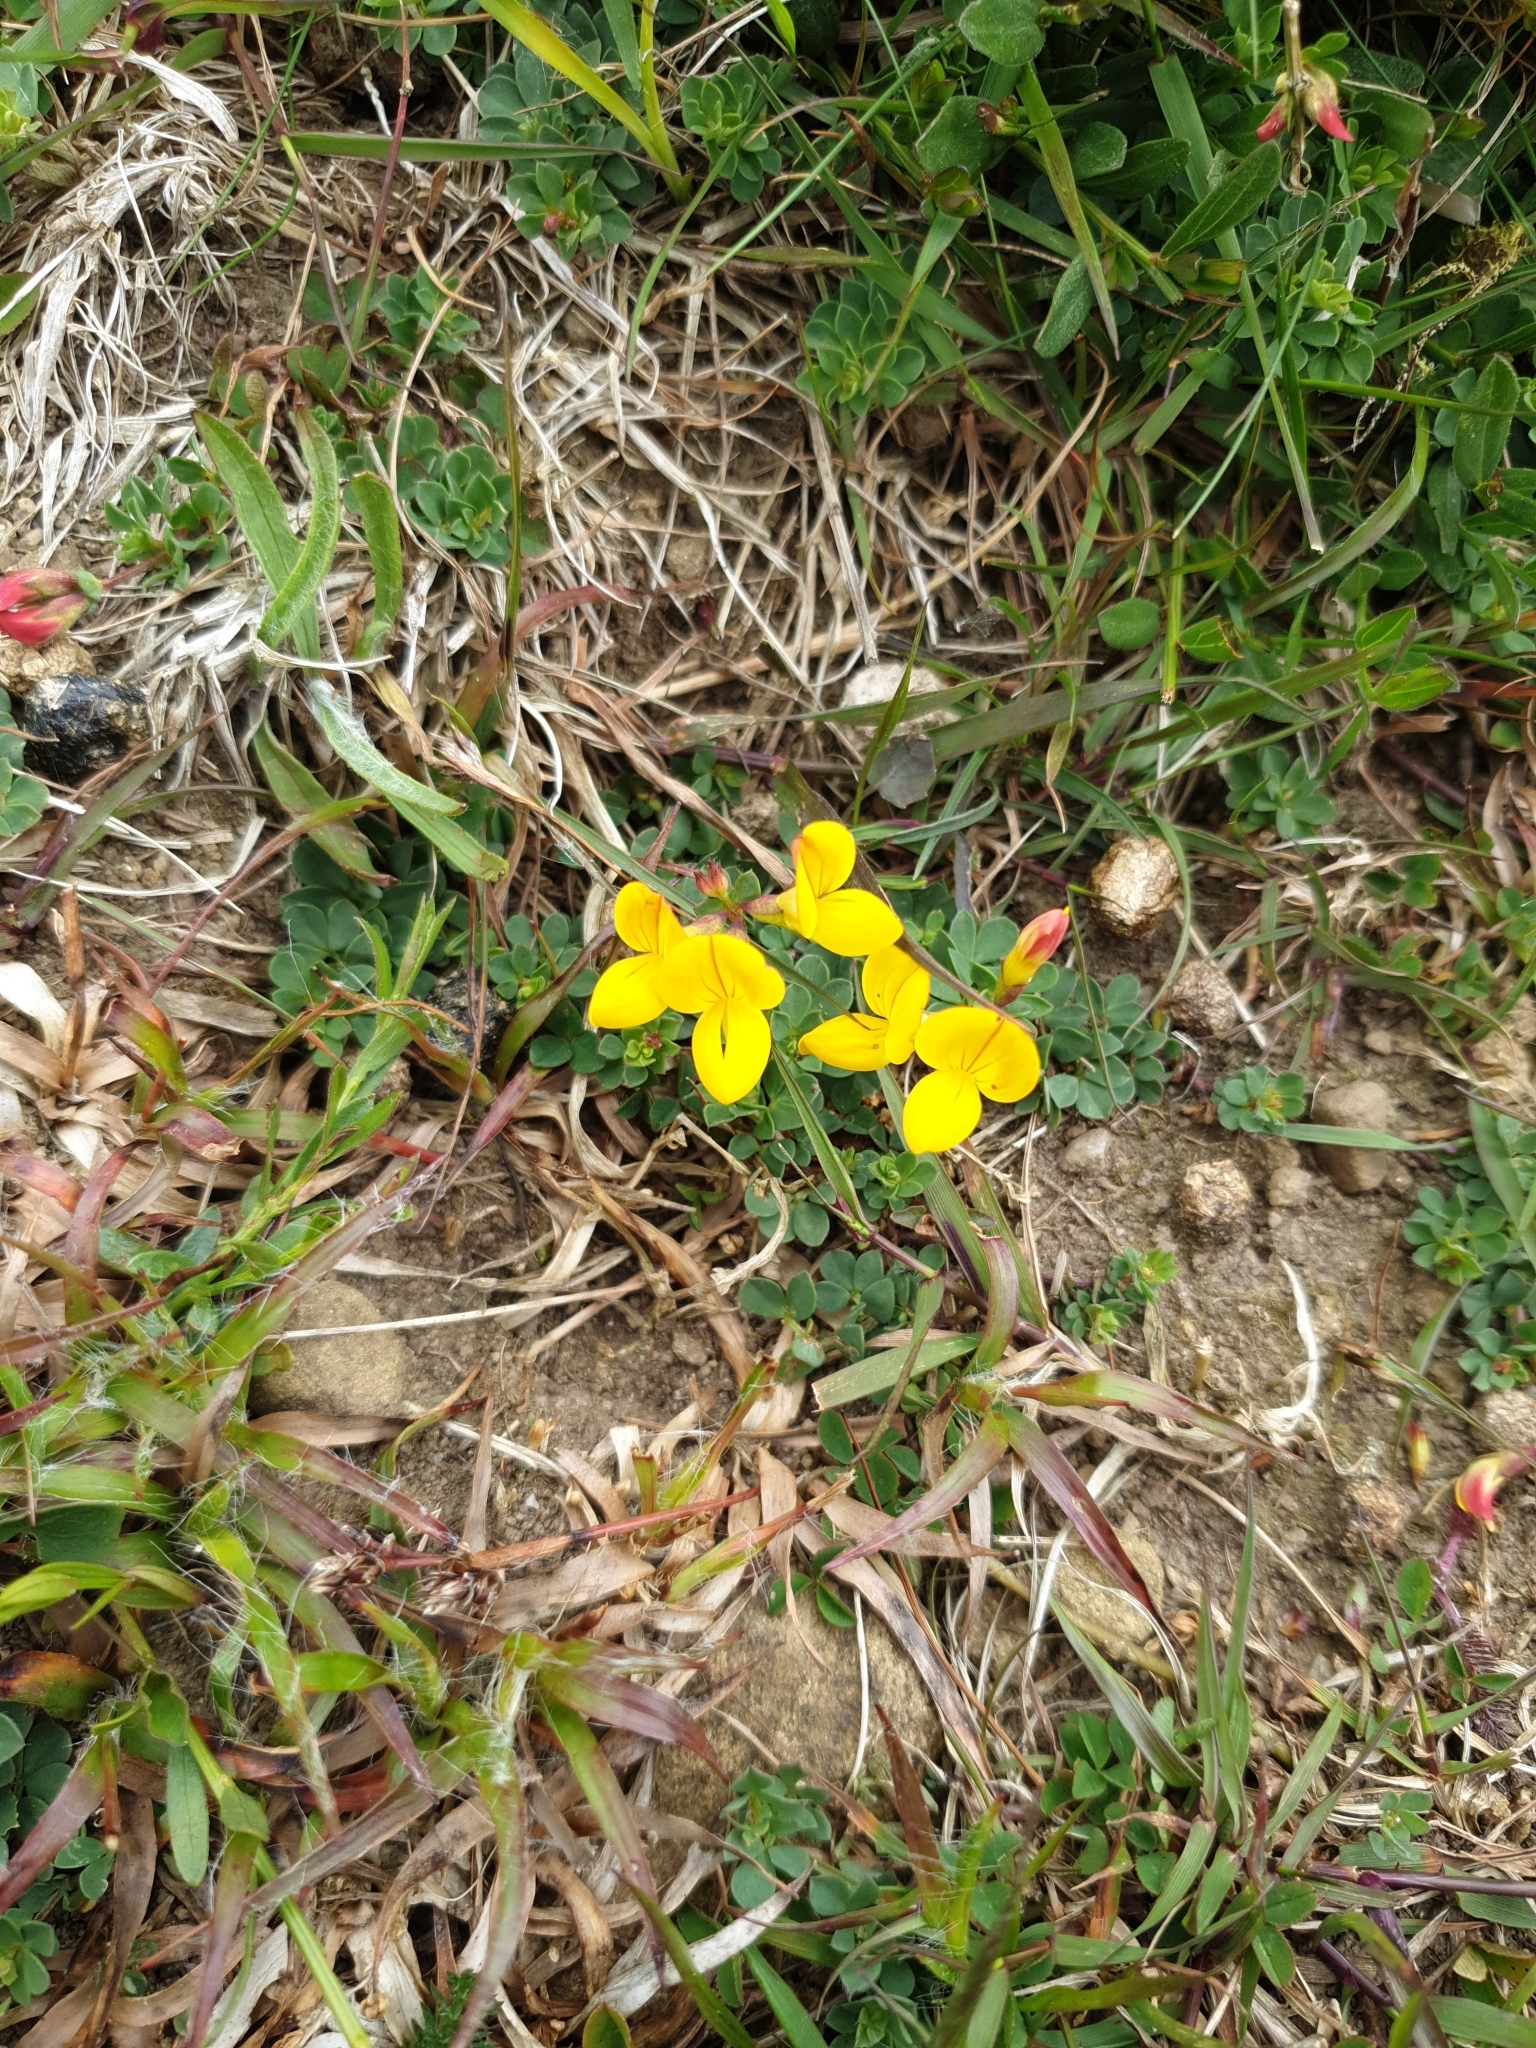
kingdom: Plantae
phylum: Tracheophyta
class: Magnoliopsida
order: Fabales
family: Fabaceae
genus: Lotus
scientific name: Lotus corniculatus
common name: Common bird's-foot-trefoil
